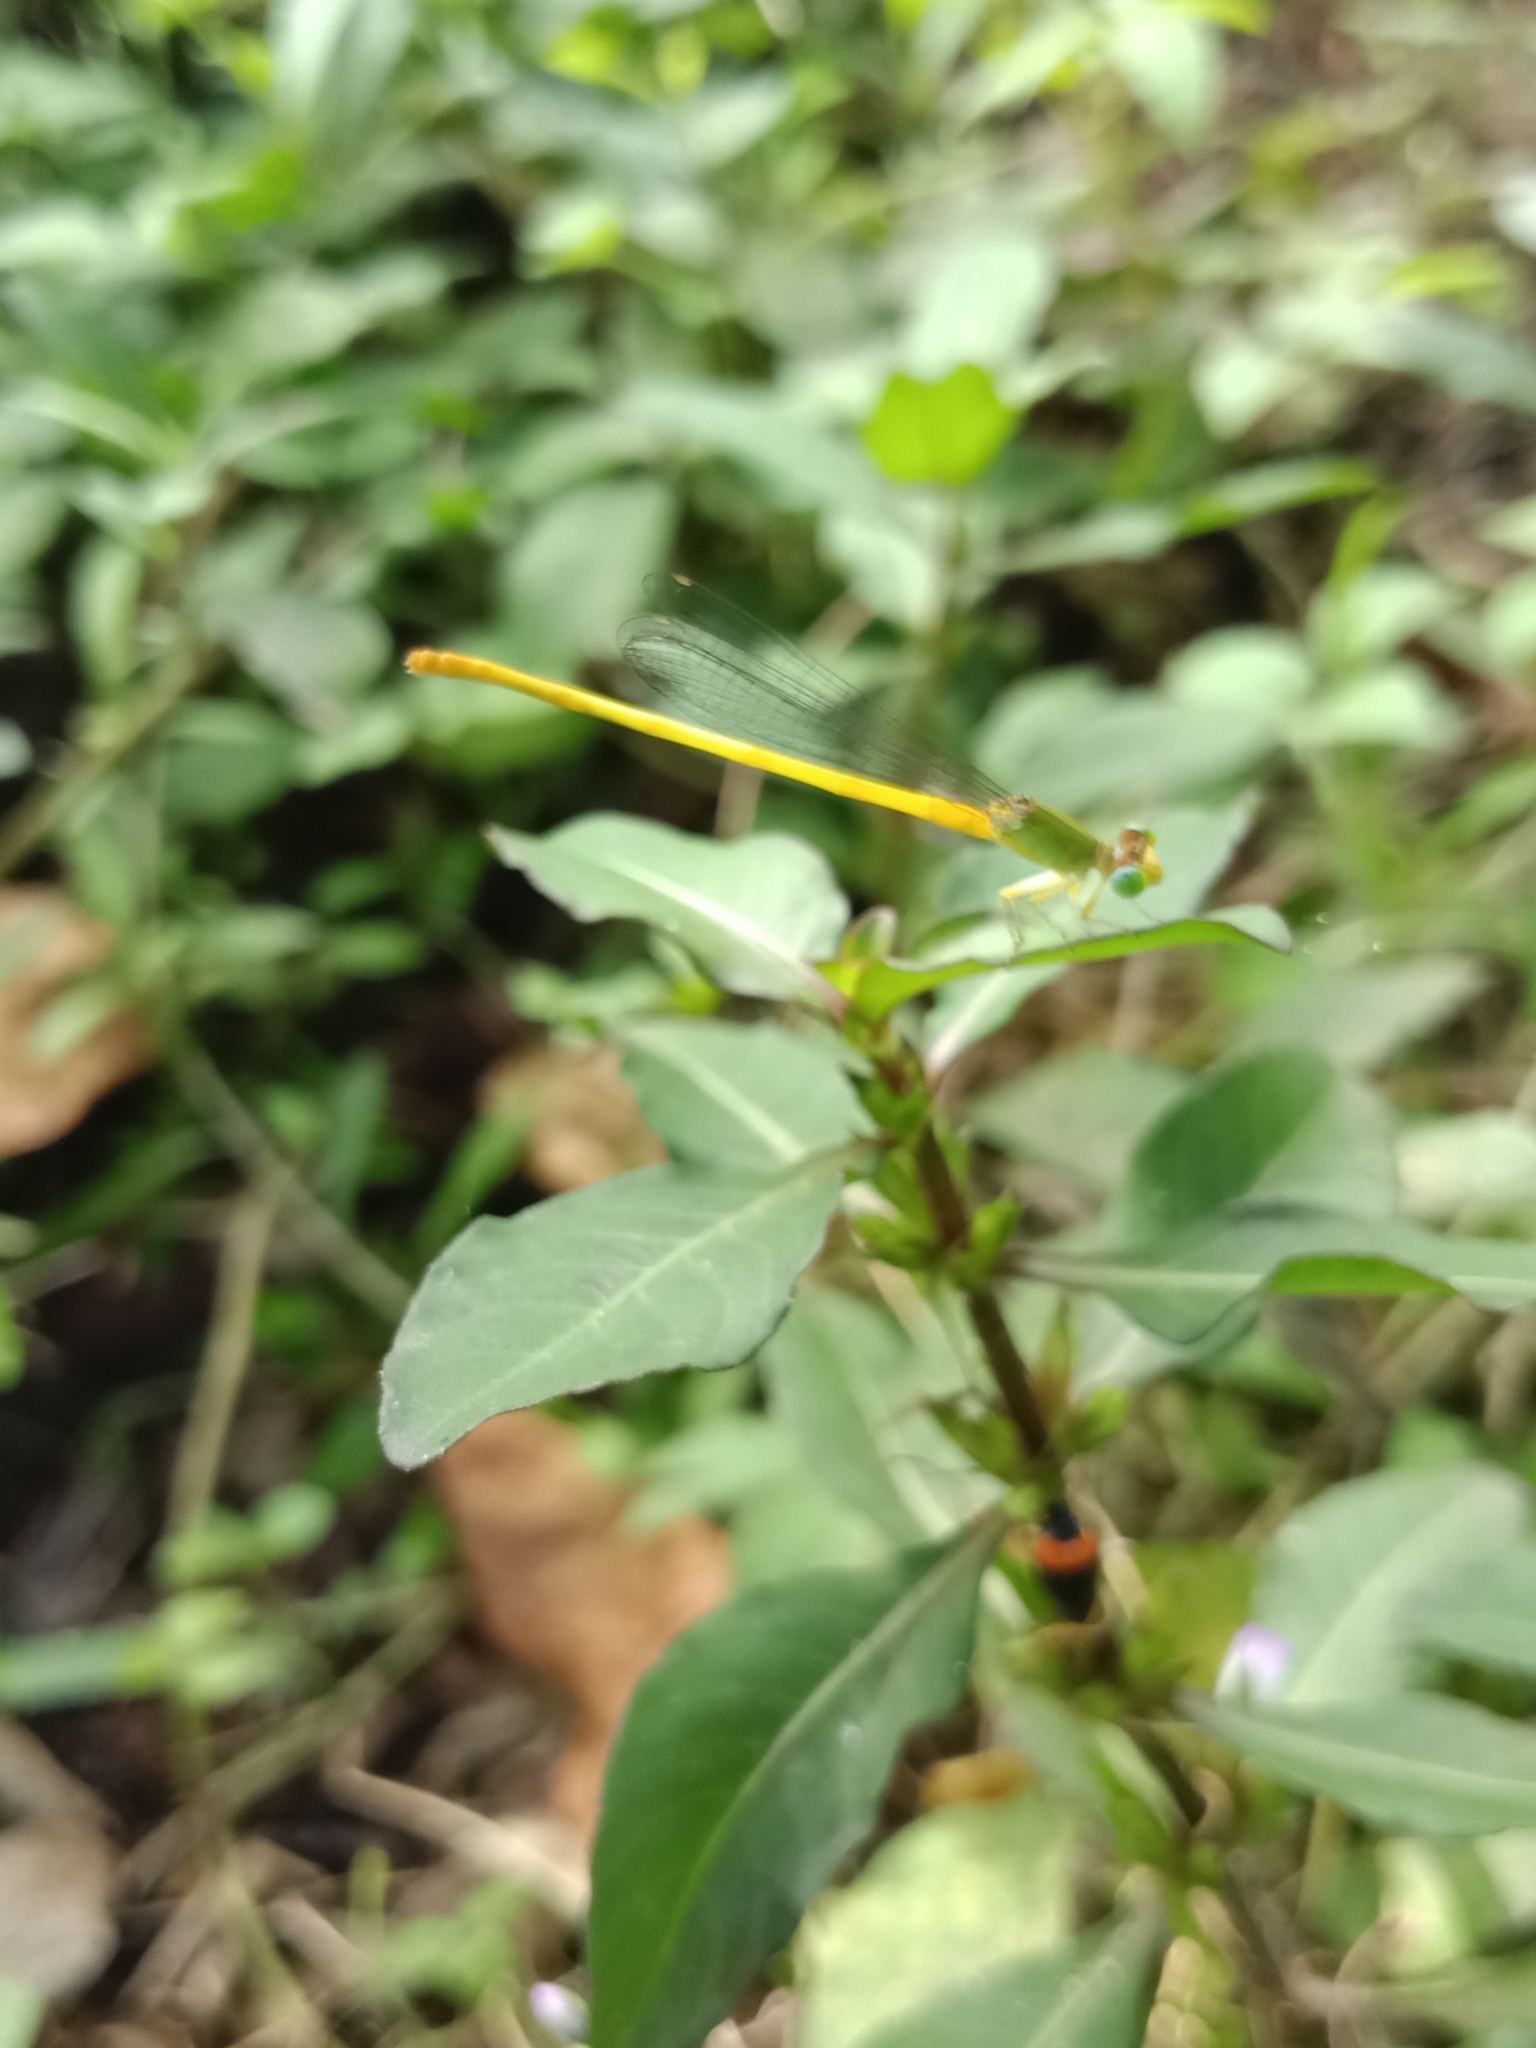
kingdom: Animalia
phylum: Arthropoda
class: Insecta
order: Odonata
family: Coenagrionidae
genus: Ceriagrion
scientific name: Ceriagrion coromandelianum
